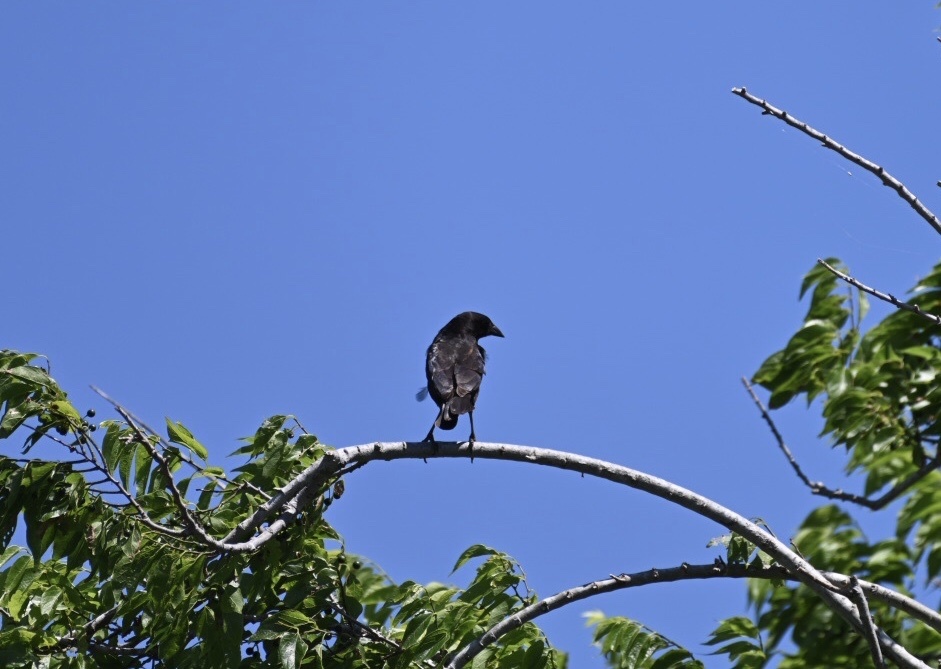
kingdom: Animalia
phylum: Chordata
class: Aves
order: Passeriformes
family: Icteridae
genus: Molothrus
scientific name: Molothrus aeneus
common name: Bronzed cowbird
